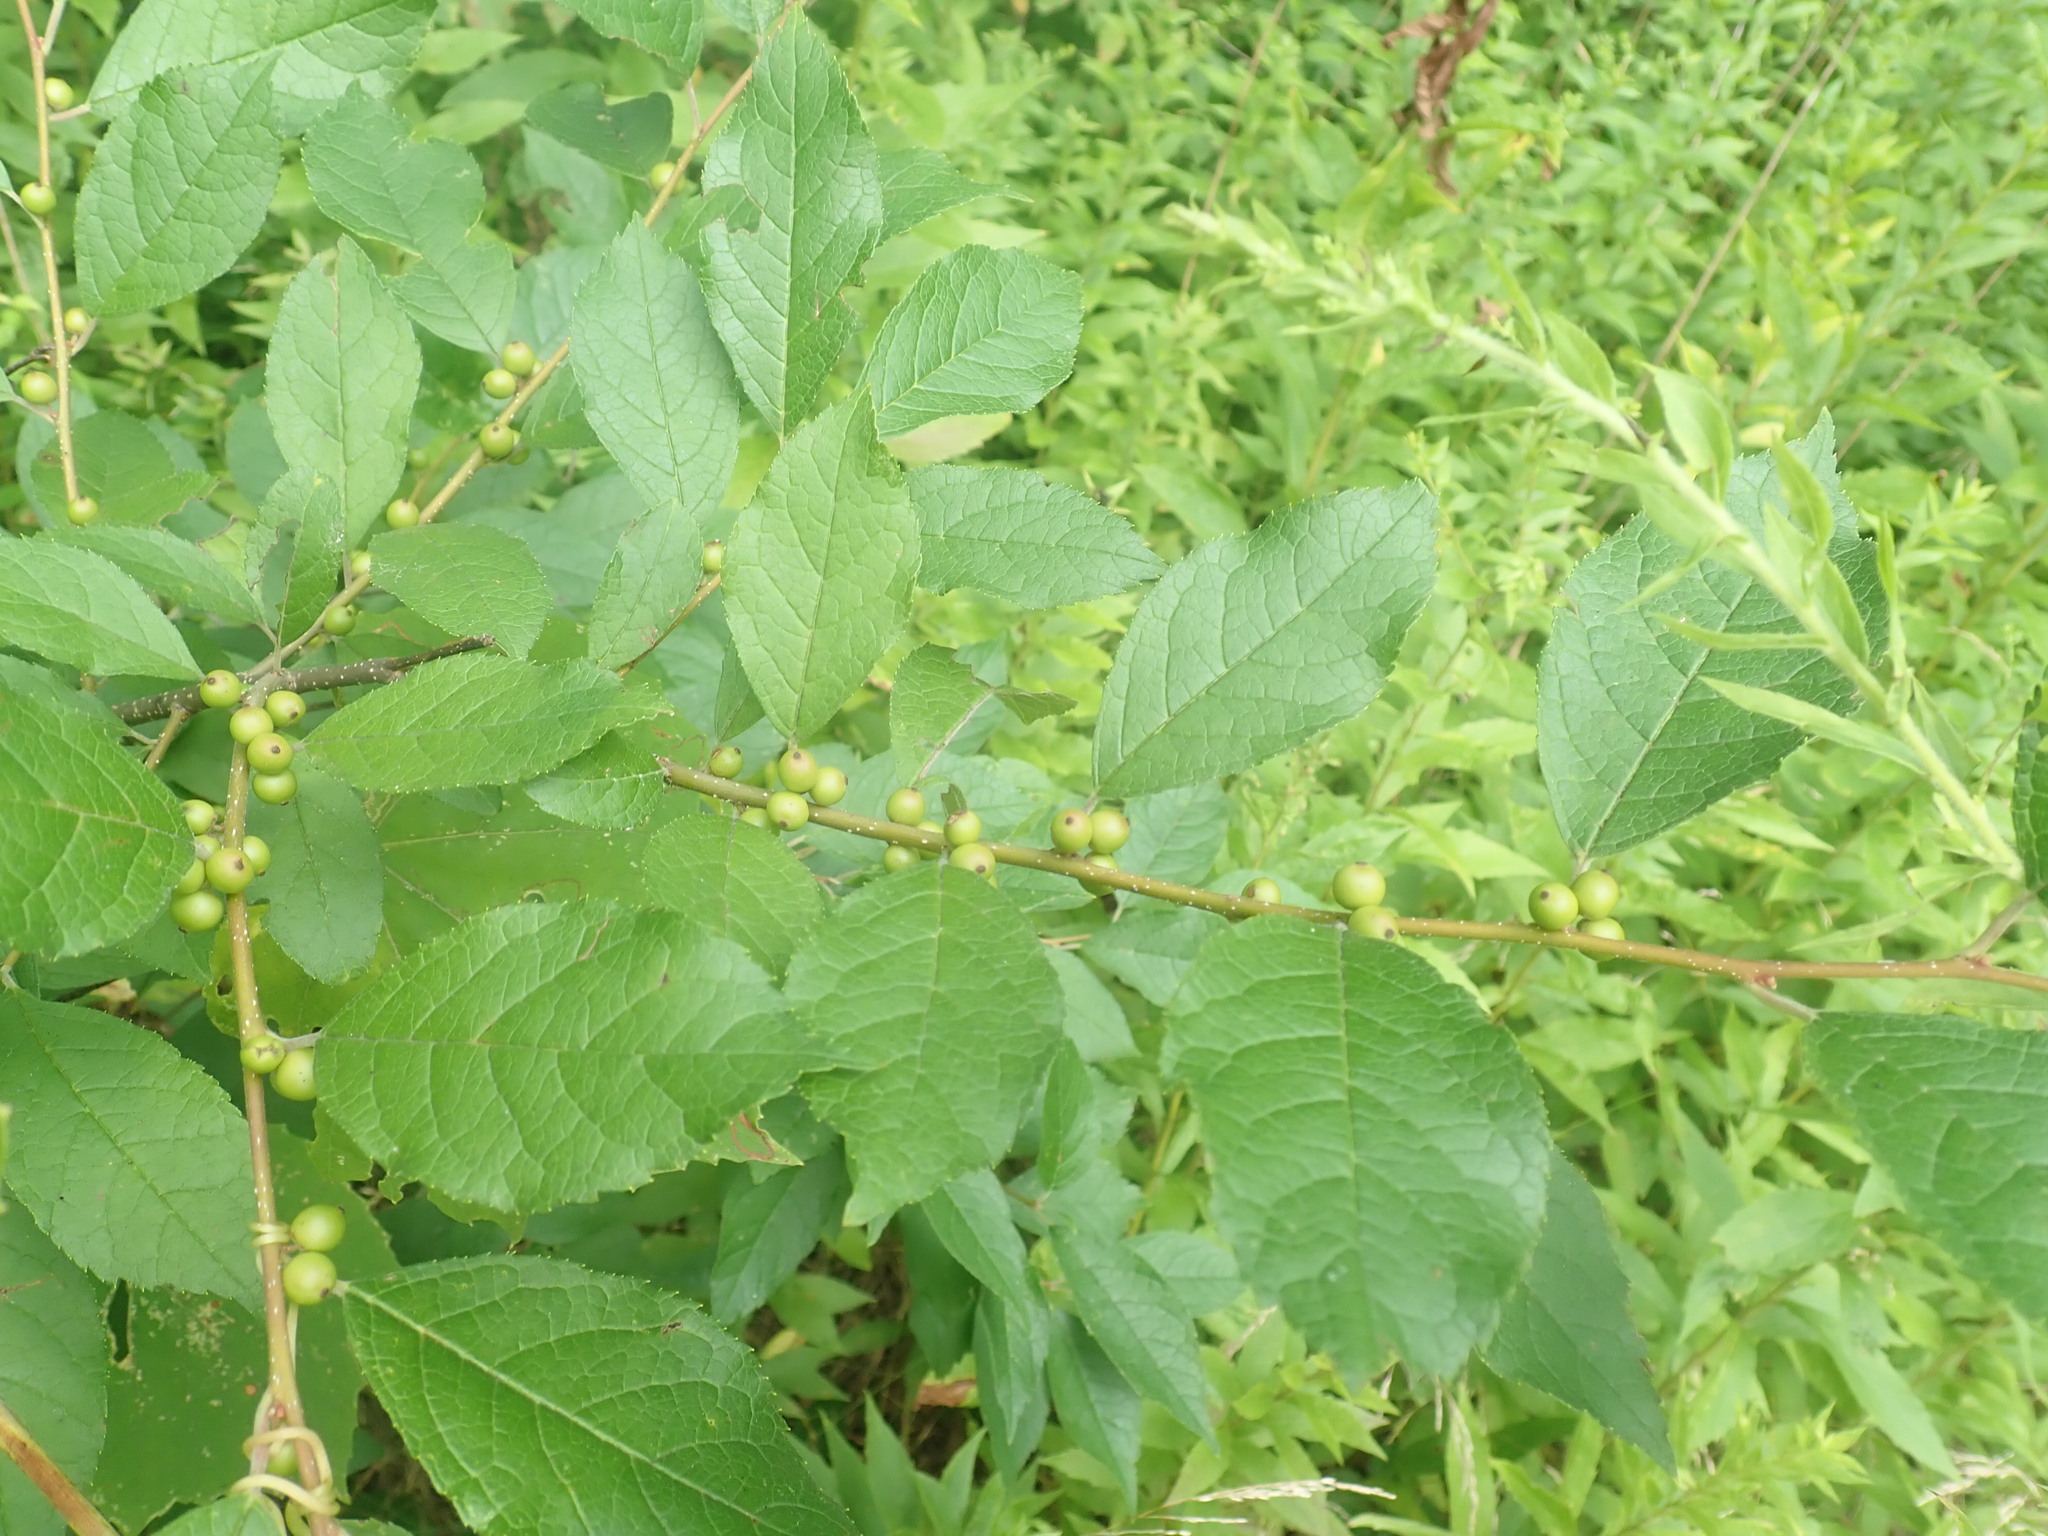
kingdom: Plantae
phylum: Tracheophyta
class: Magnoliopsida
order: Aquifoliales
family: Aquifoliaceae
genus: Ilex
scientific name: Ilex verticillata
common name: Virginia winterberry
